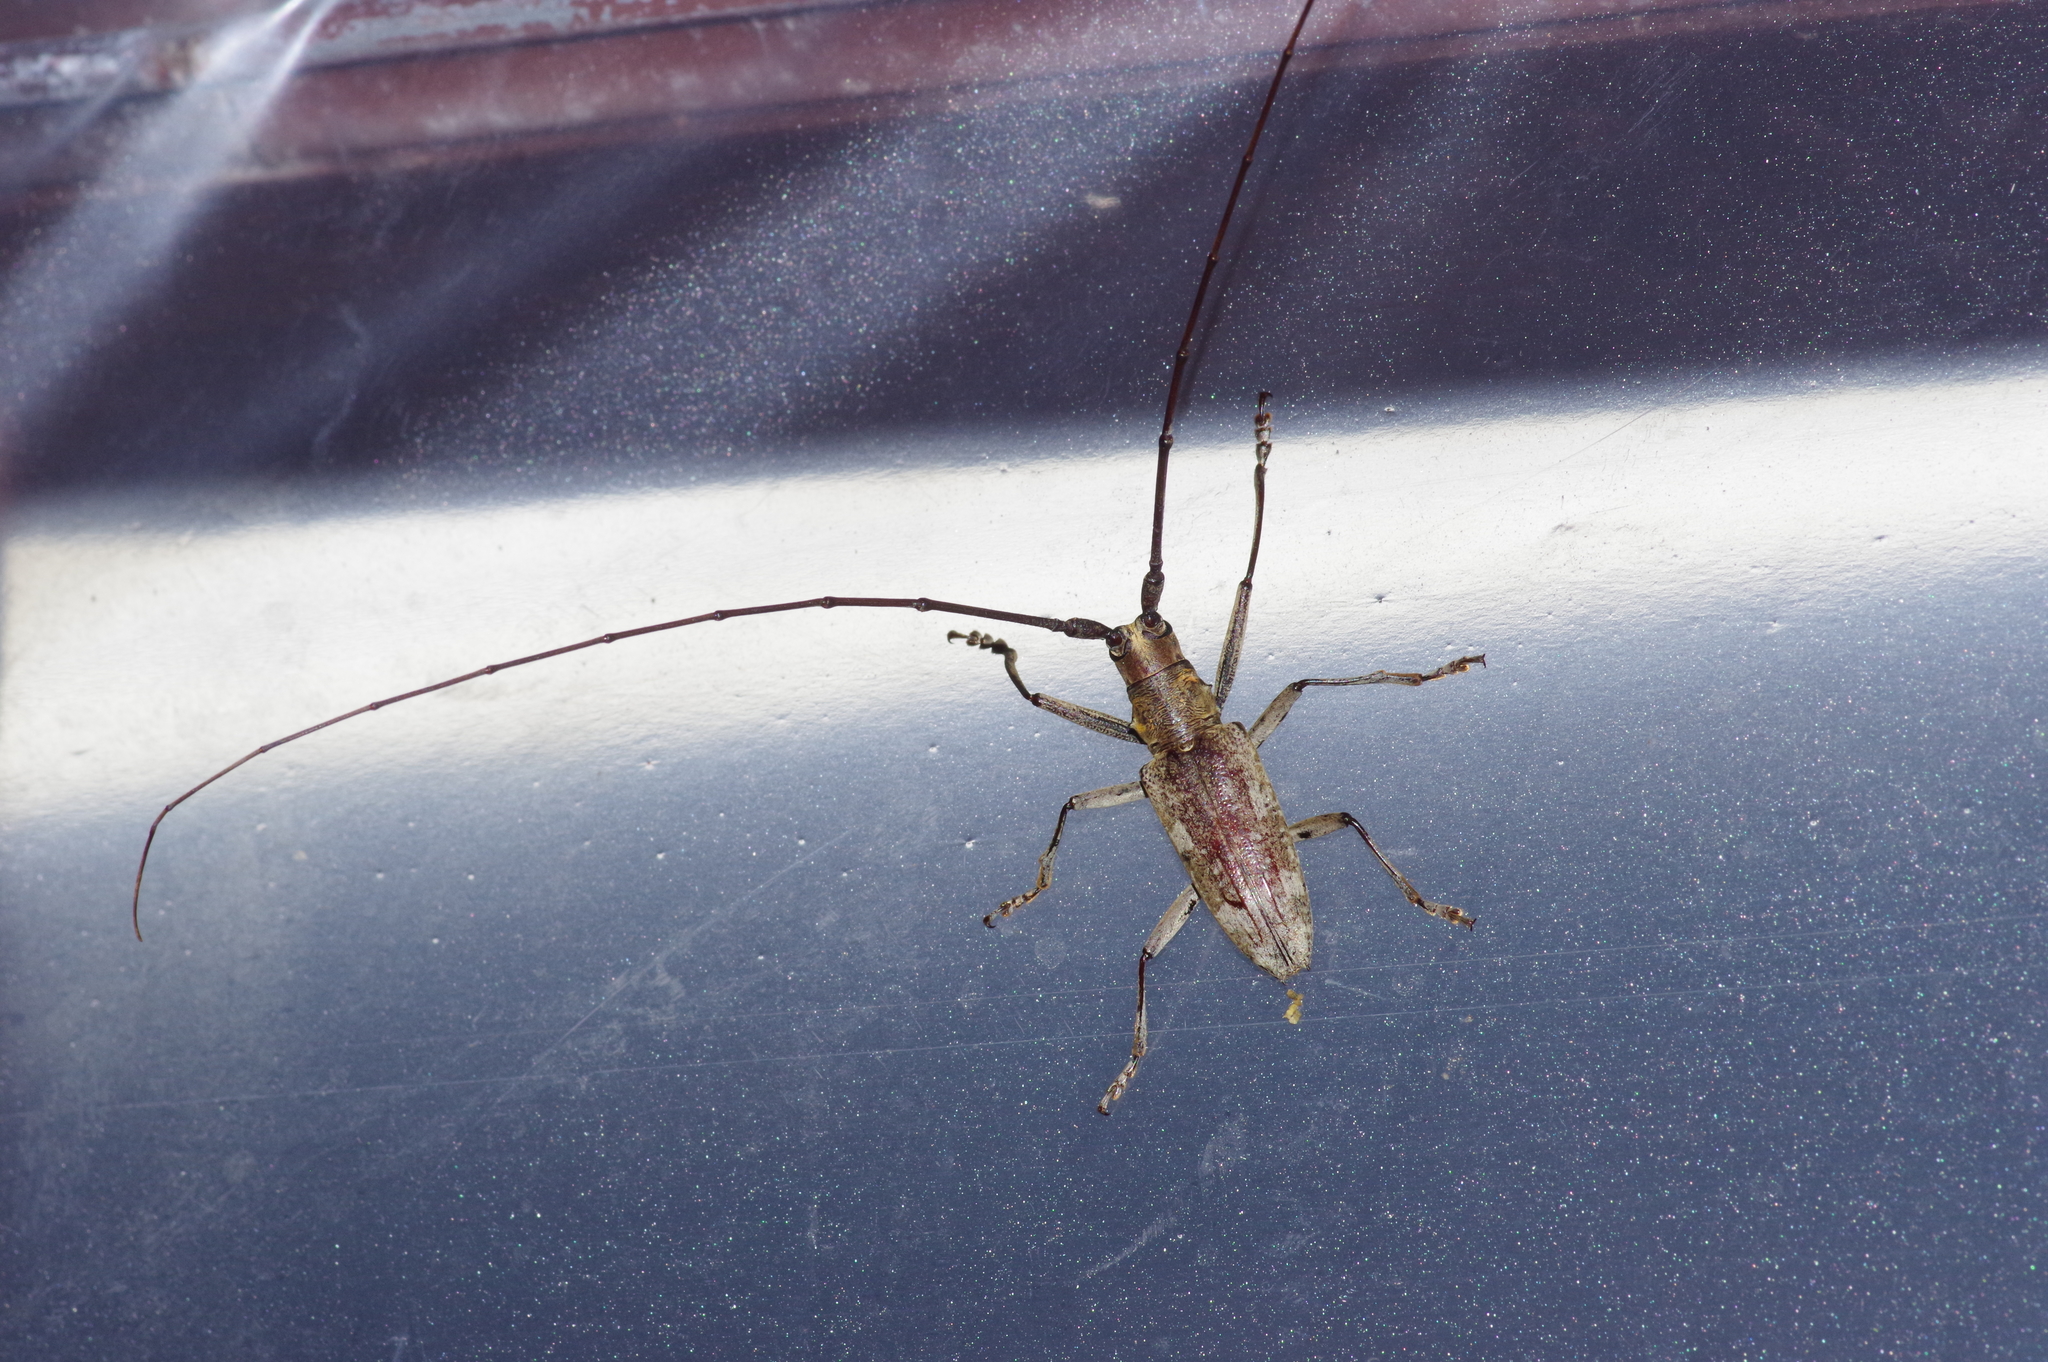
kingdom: Animalia
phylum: Arthropoda
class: Insecta
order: Coleoptera
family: Cerambycidae
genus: Psacothea
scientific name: Psacothea hilaris
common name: Yellow-spotted longicorn beetle
